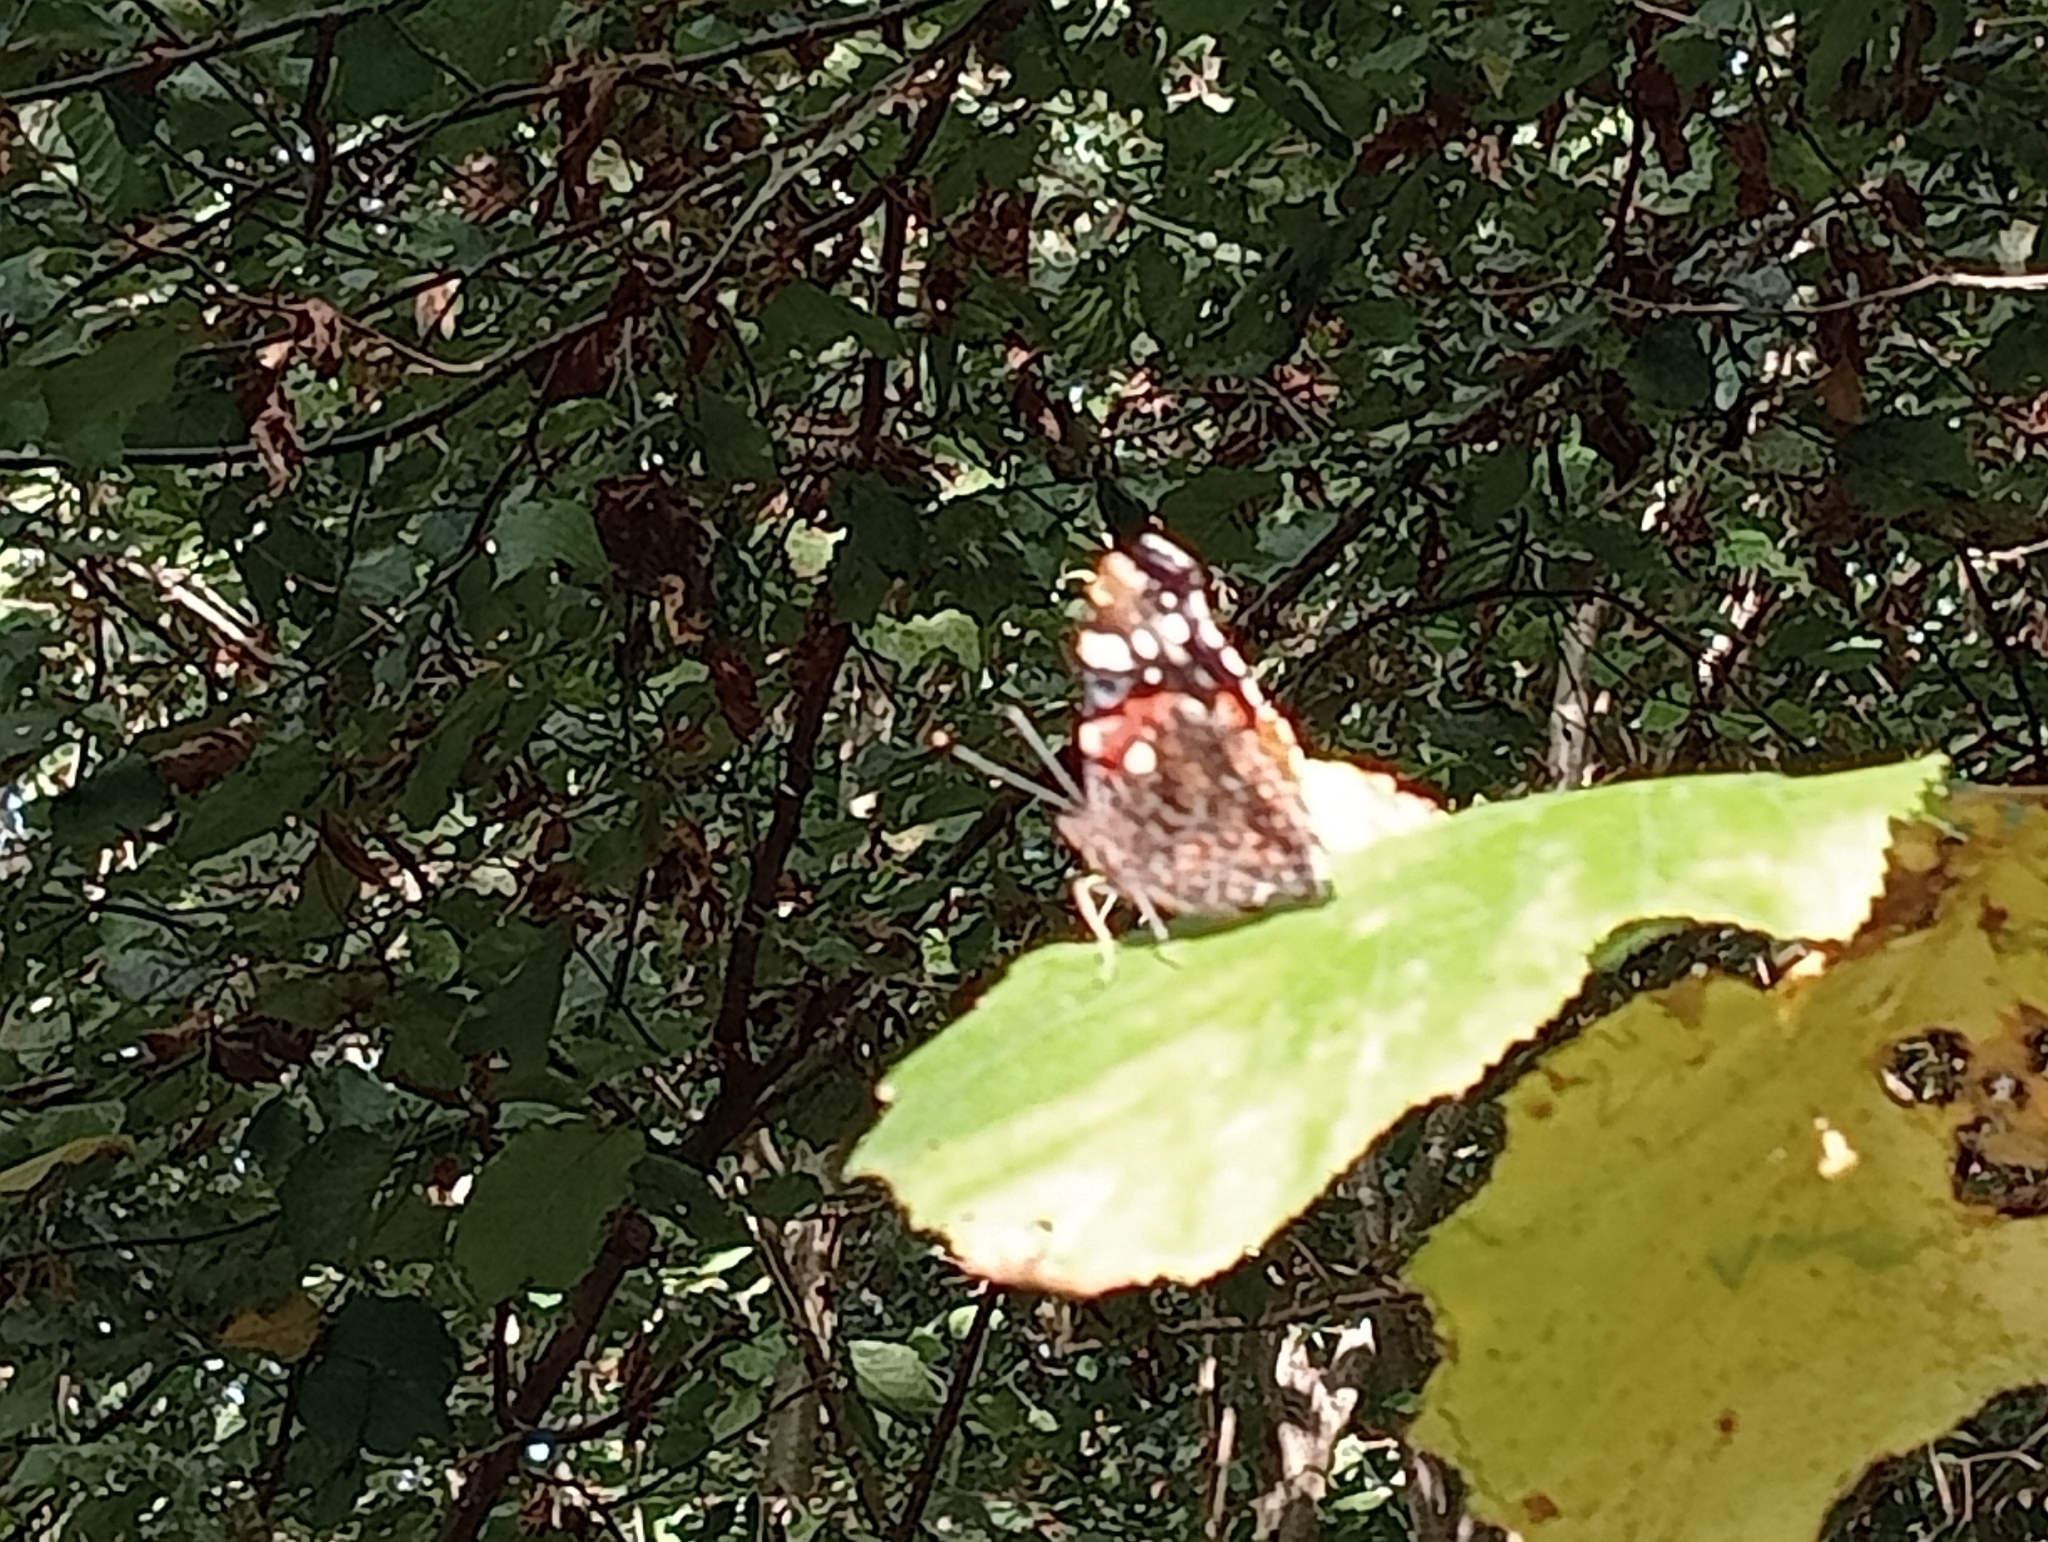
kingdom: Animalia
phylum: Arthropoda
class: Insecta
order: Lepidoptera
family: Nymphalidae
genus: Vanessa
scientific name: Vanessa atalanta
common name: Red admiral
